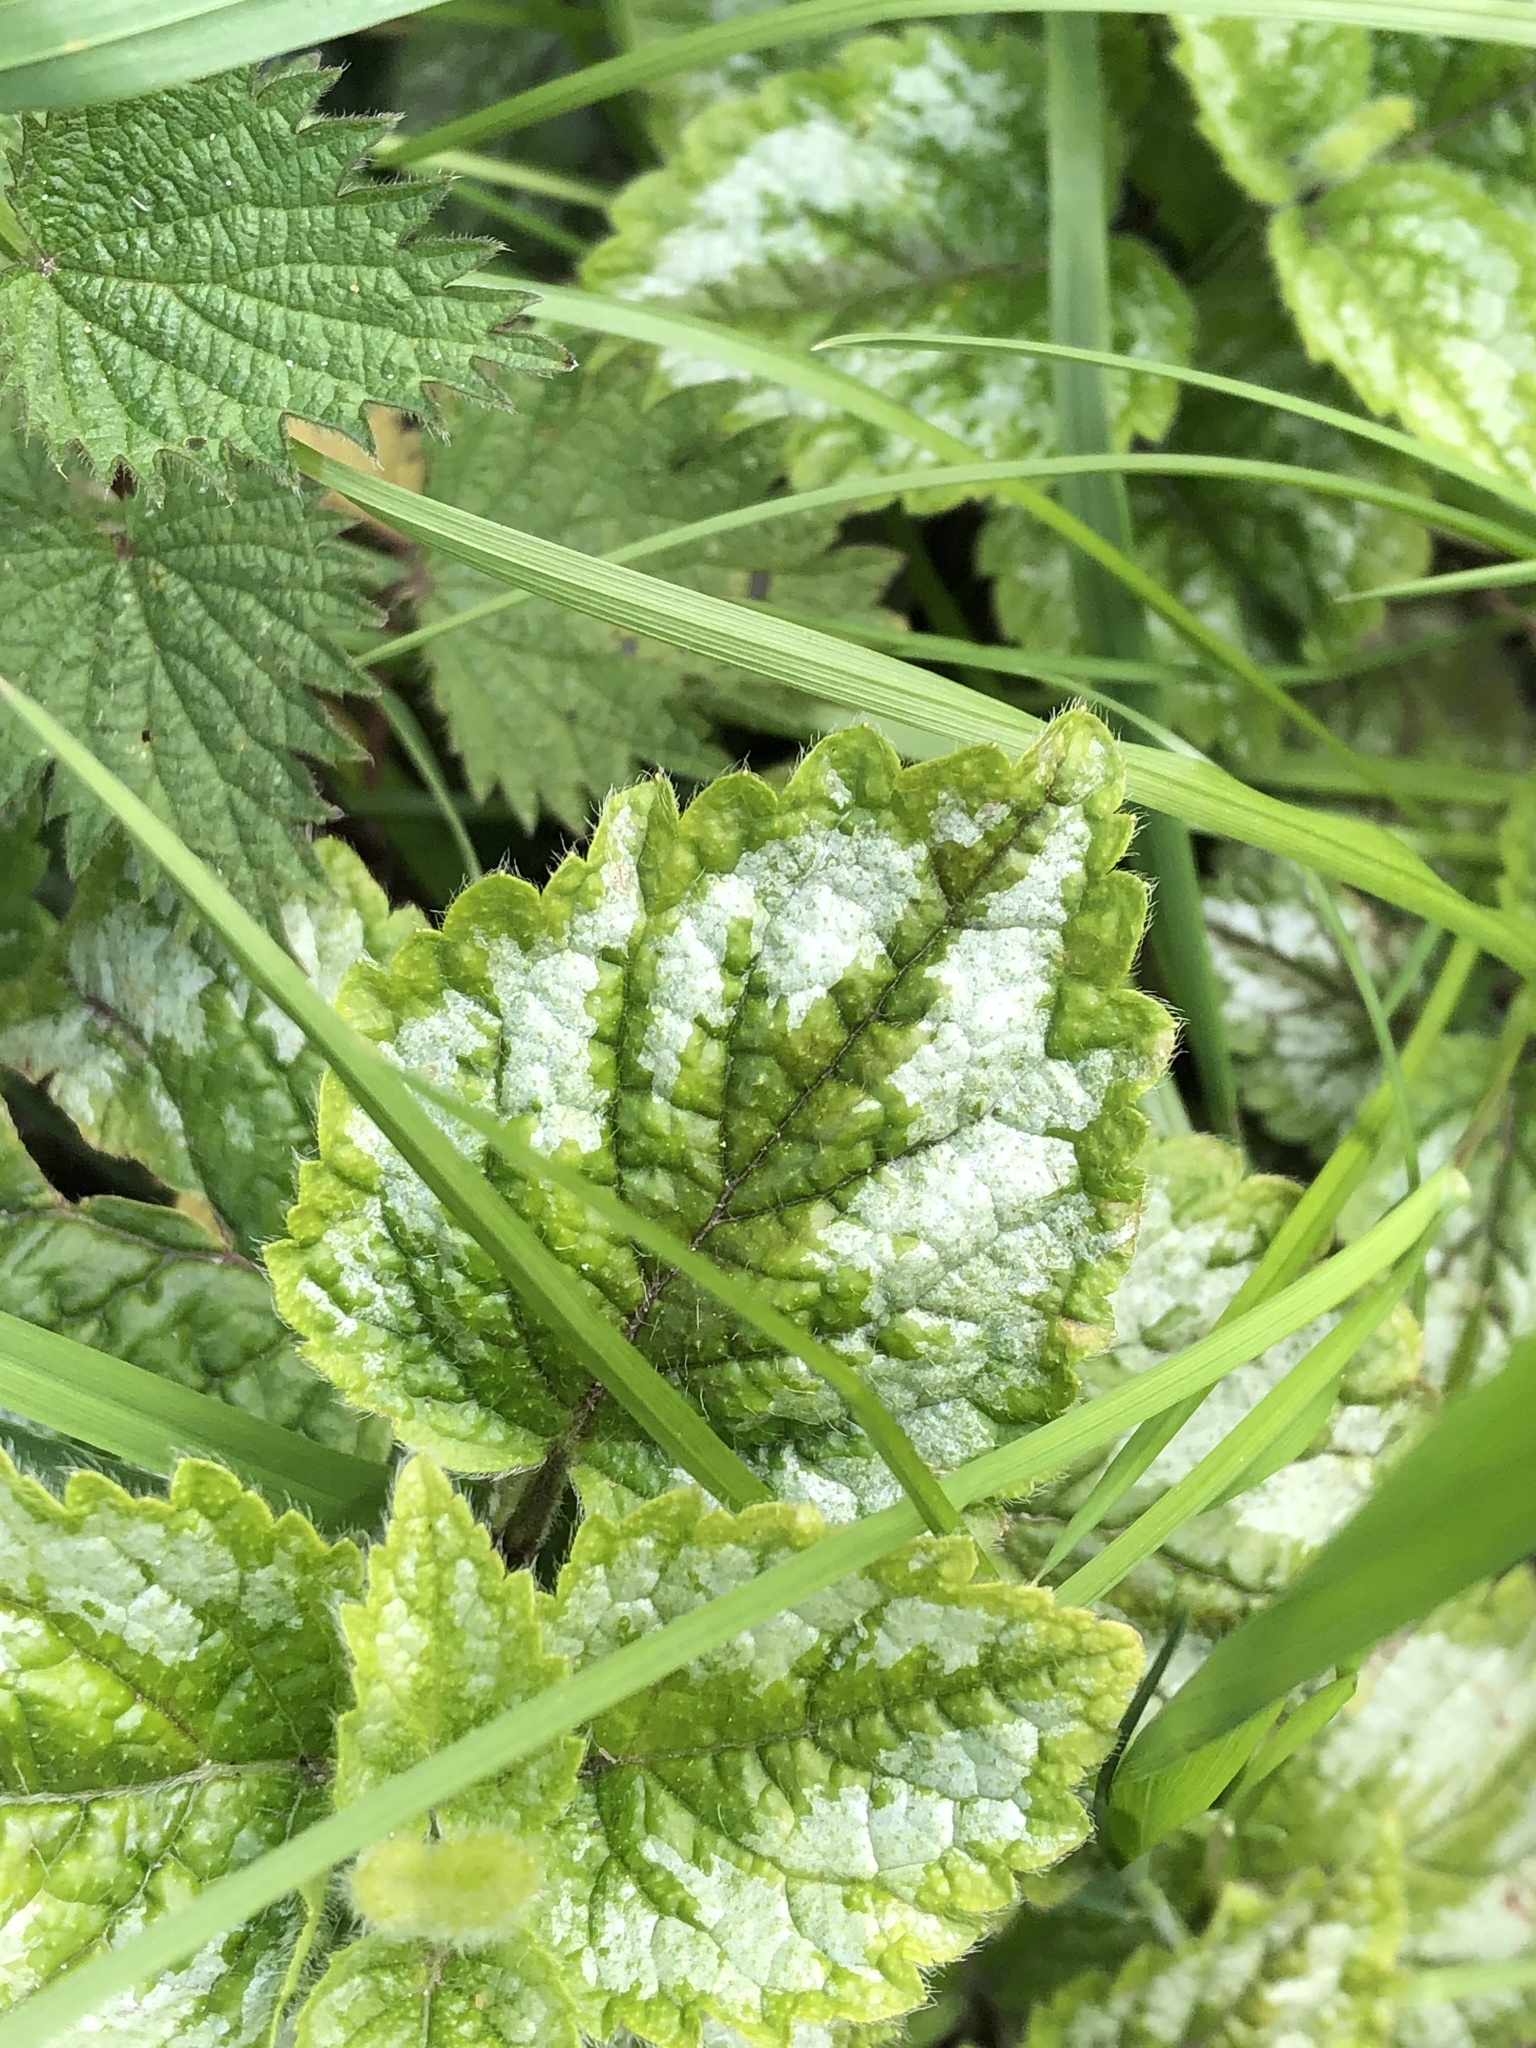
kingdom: Plantae
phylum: Tracheophyta
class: Magnoliopsida
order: Lamiales
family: Lamiaceae
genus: Lamium
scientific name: Lamium galeobdolon
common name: Yellow archangel
